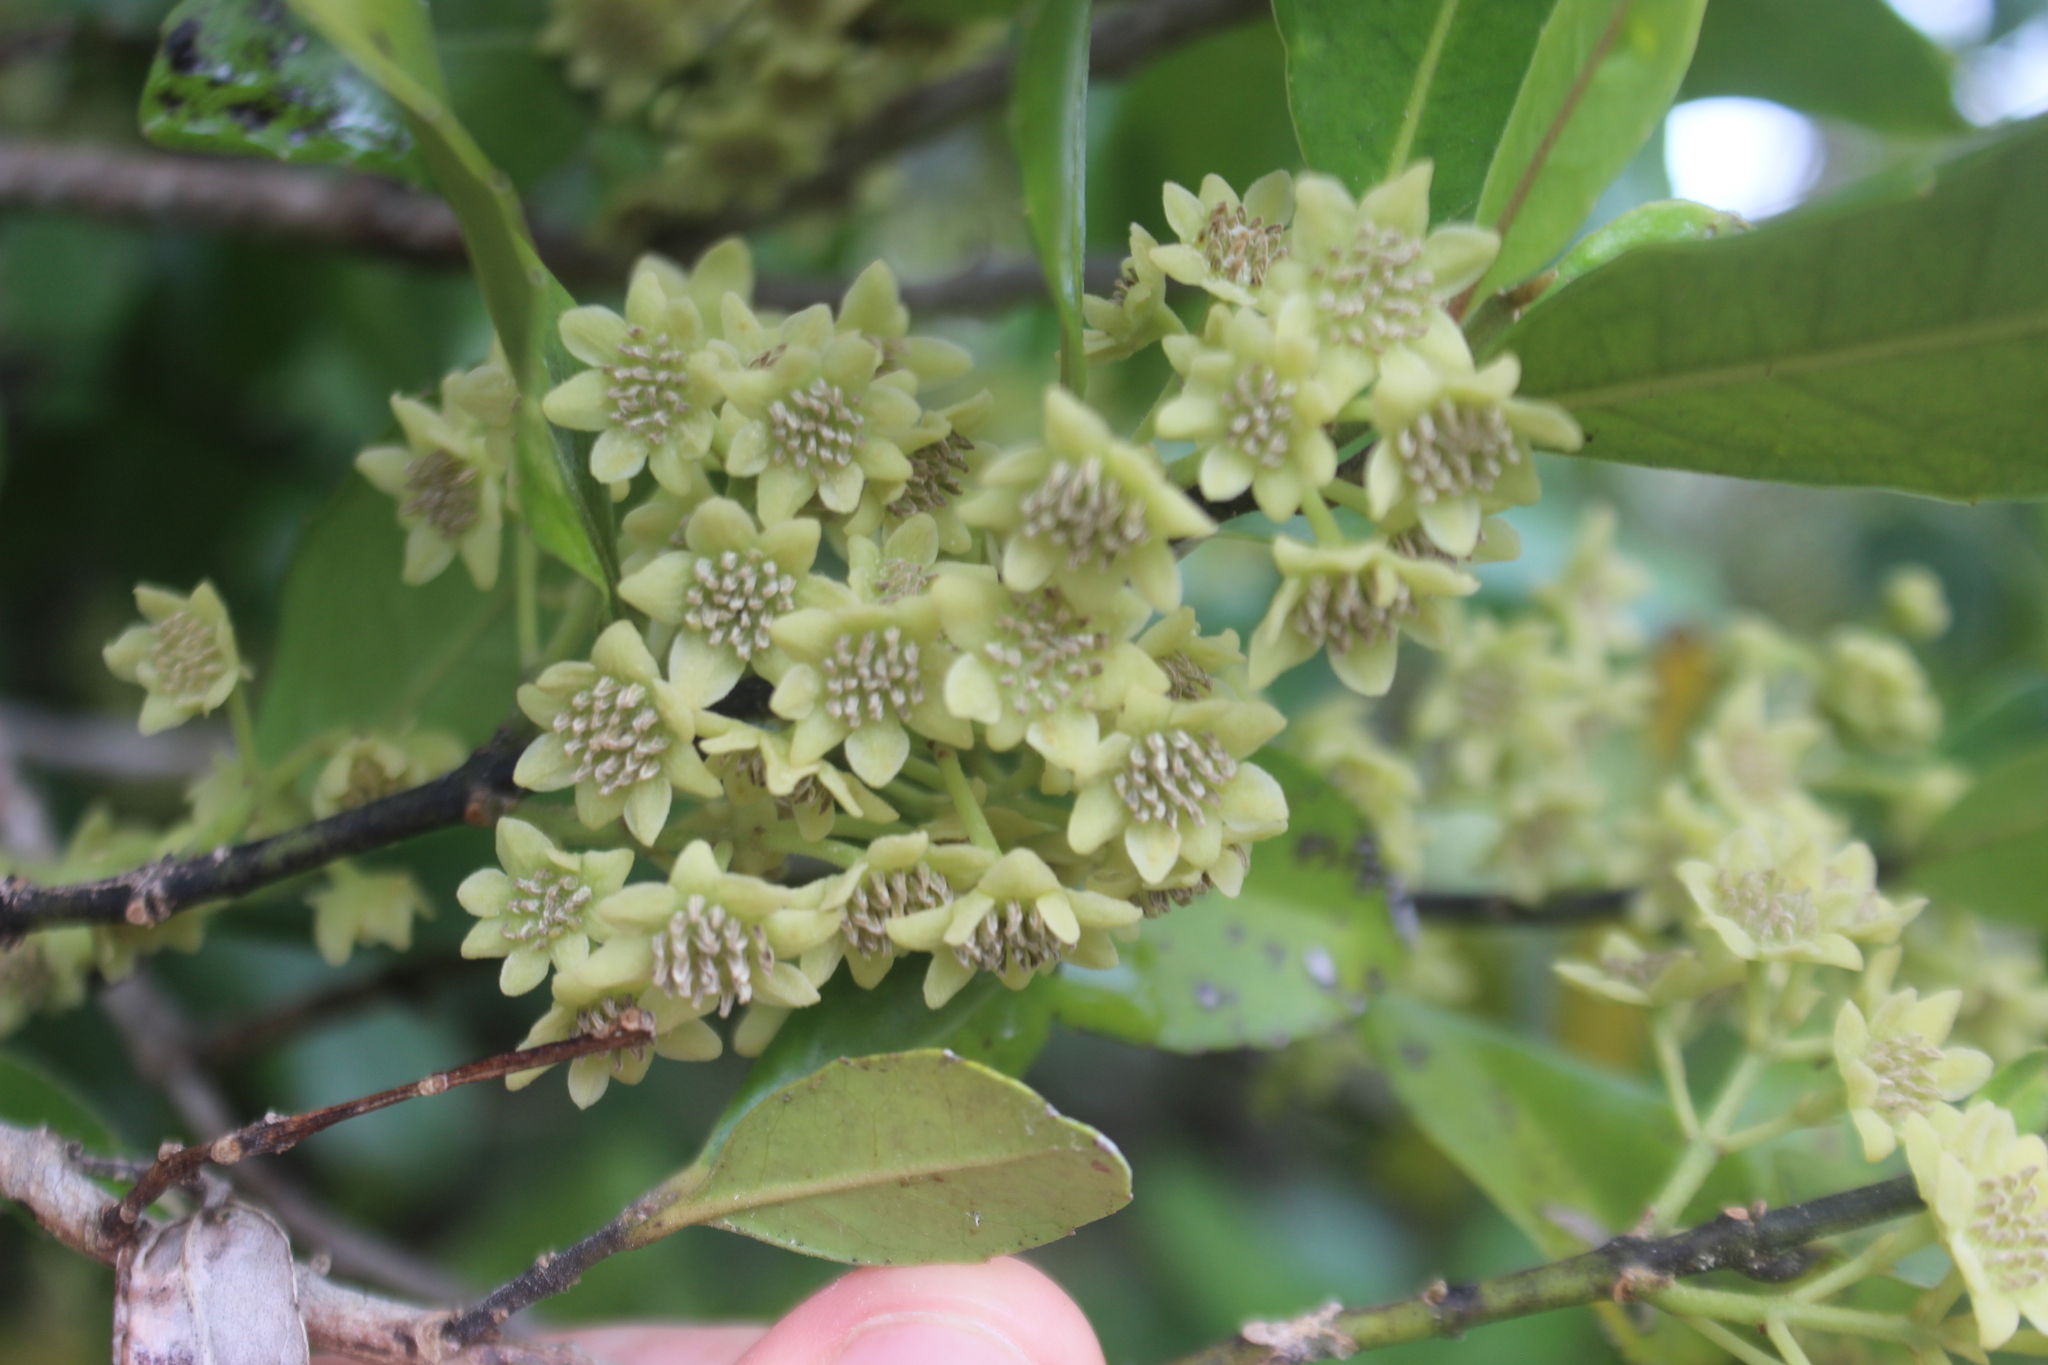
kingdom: Plantae
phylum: Tracheophyta
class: Magnoliopsida
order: Laurales
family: Monimiaceae
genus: Hedycarya
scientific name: Hedycarya arborea
